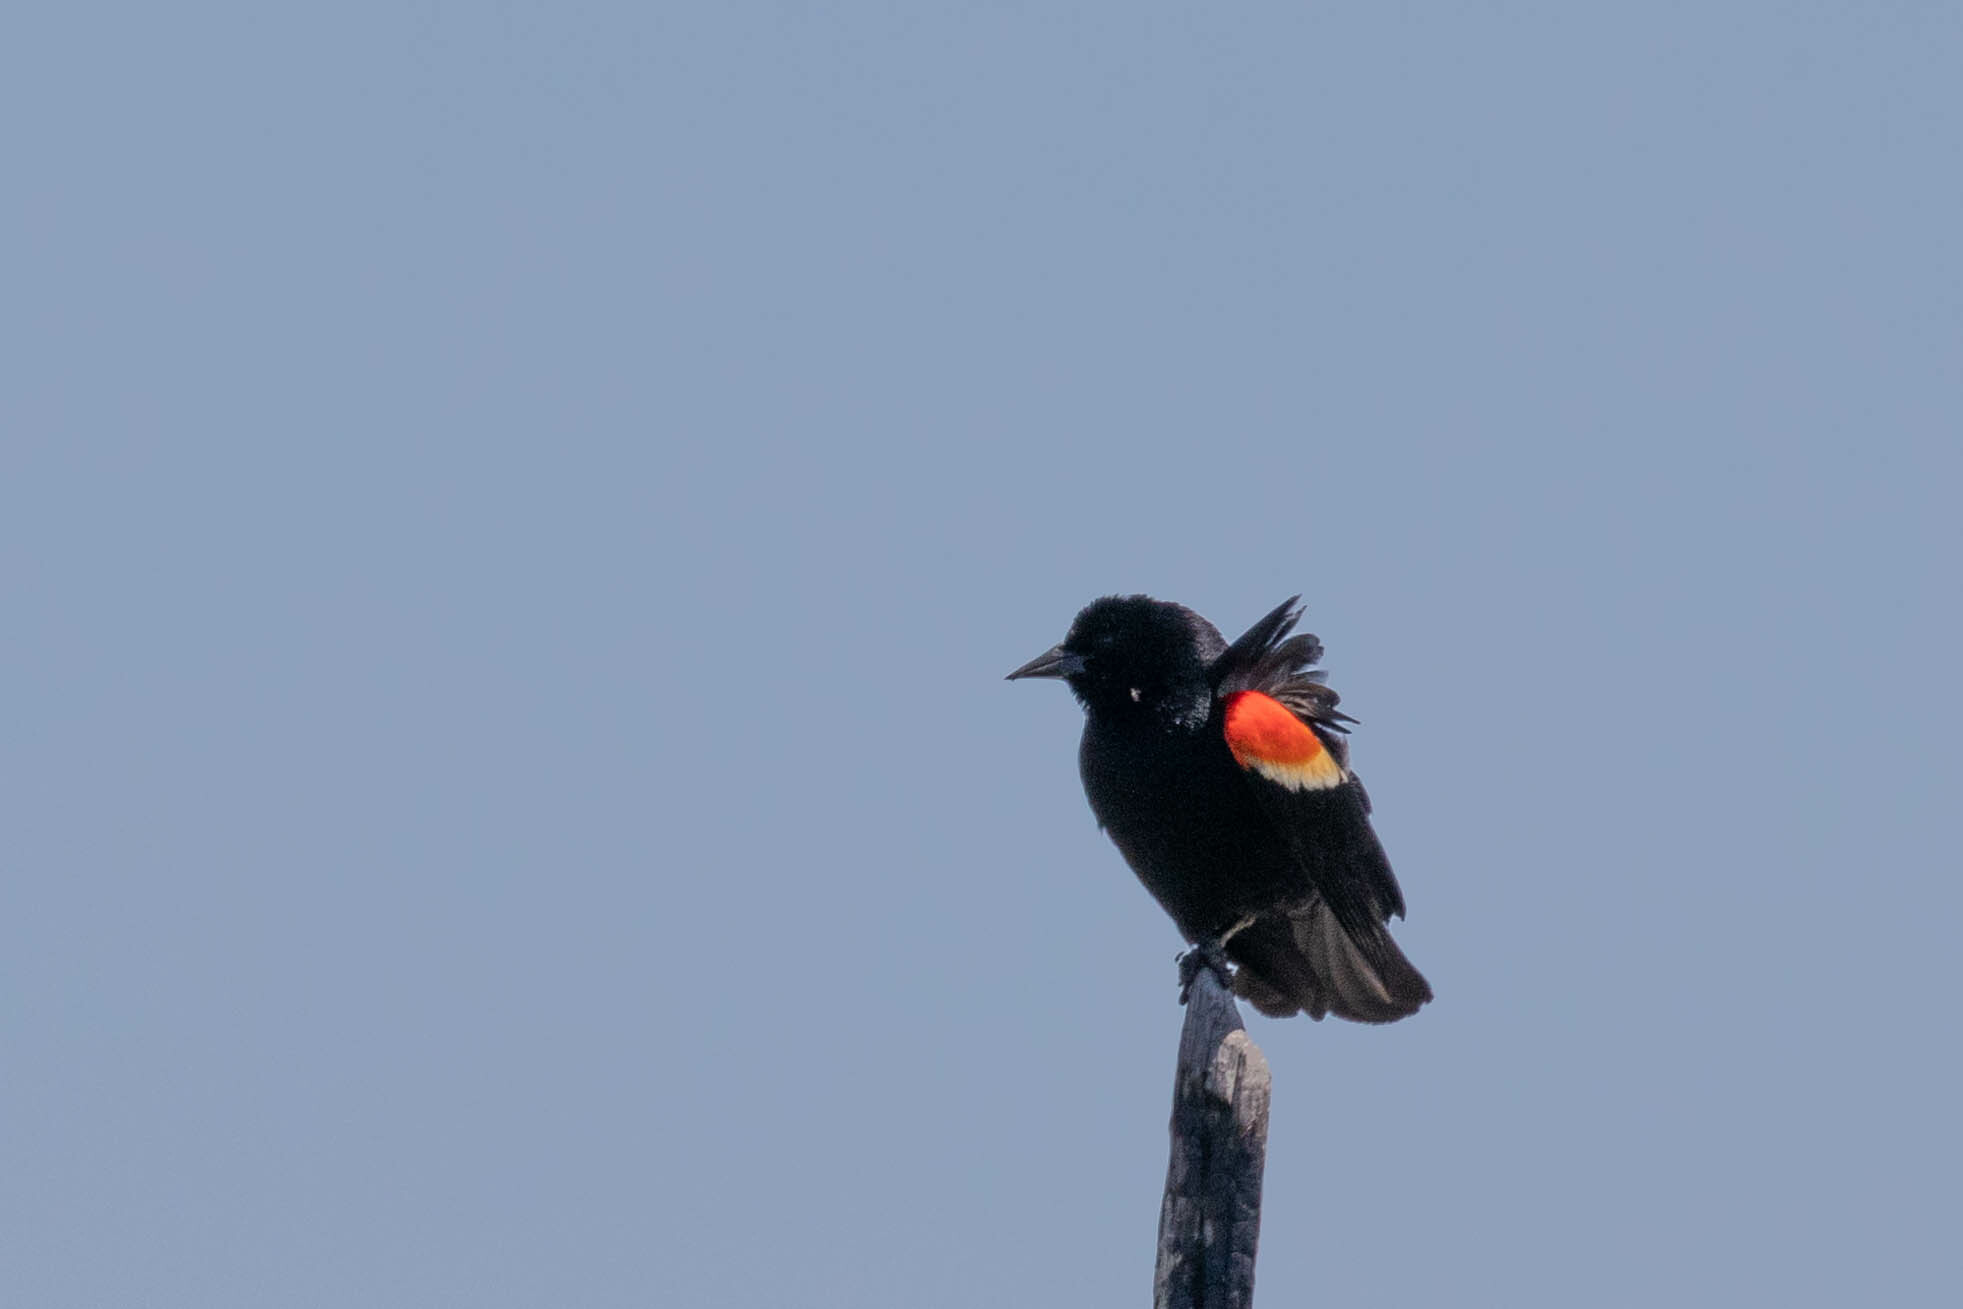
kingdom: Animalia
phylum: Chordata
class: Aves
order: Passeriformes
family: Icteridae
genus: Agelaius
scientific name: Agelaius phoeniceus
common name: Red-winged blackbird
